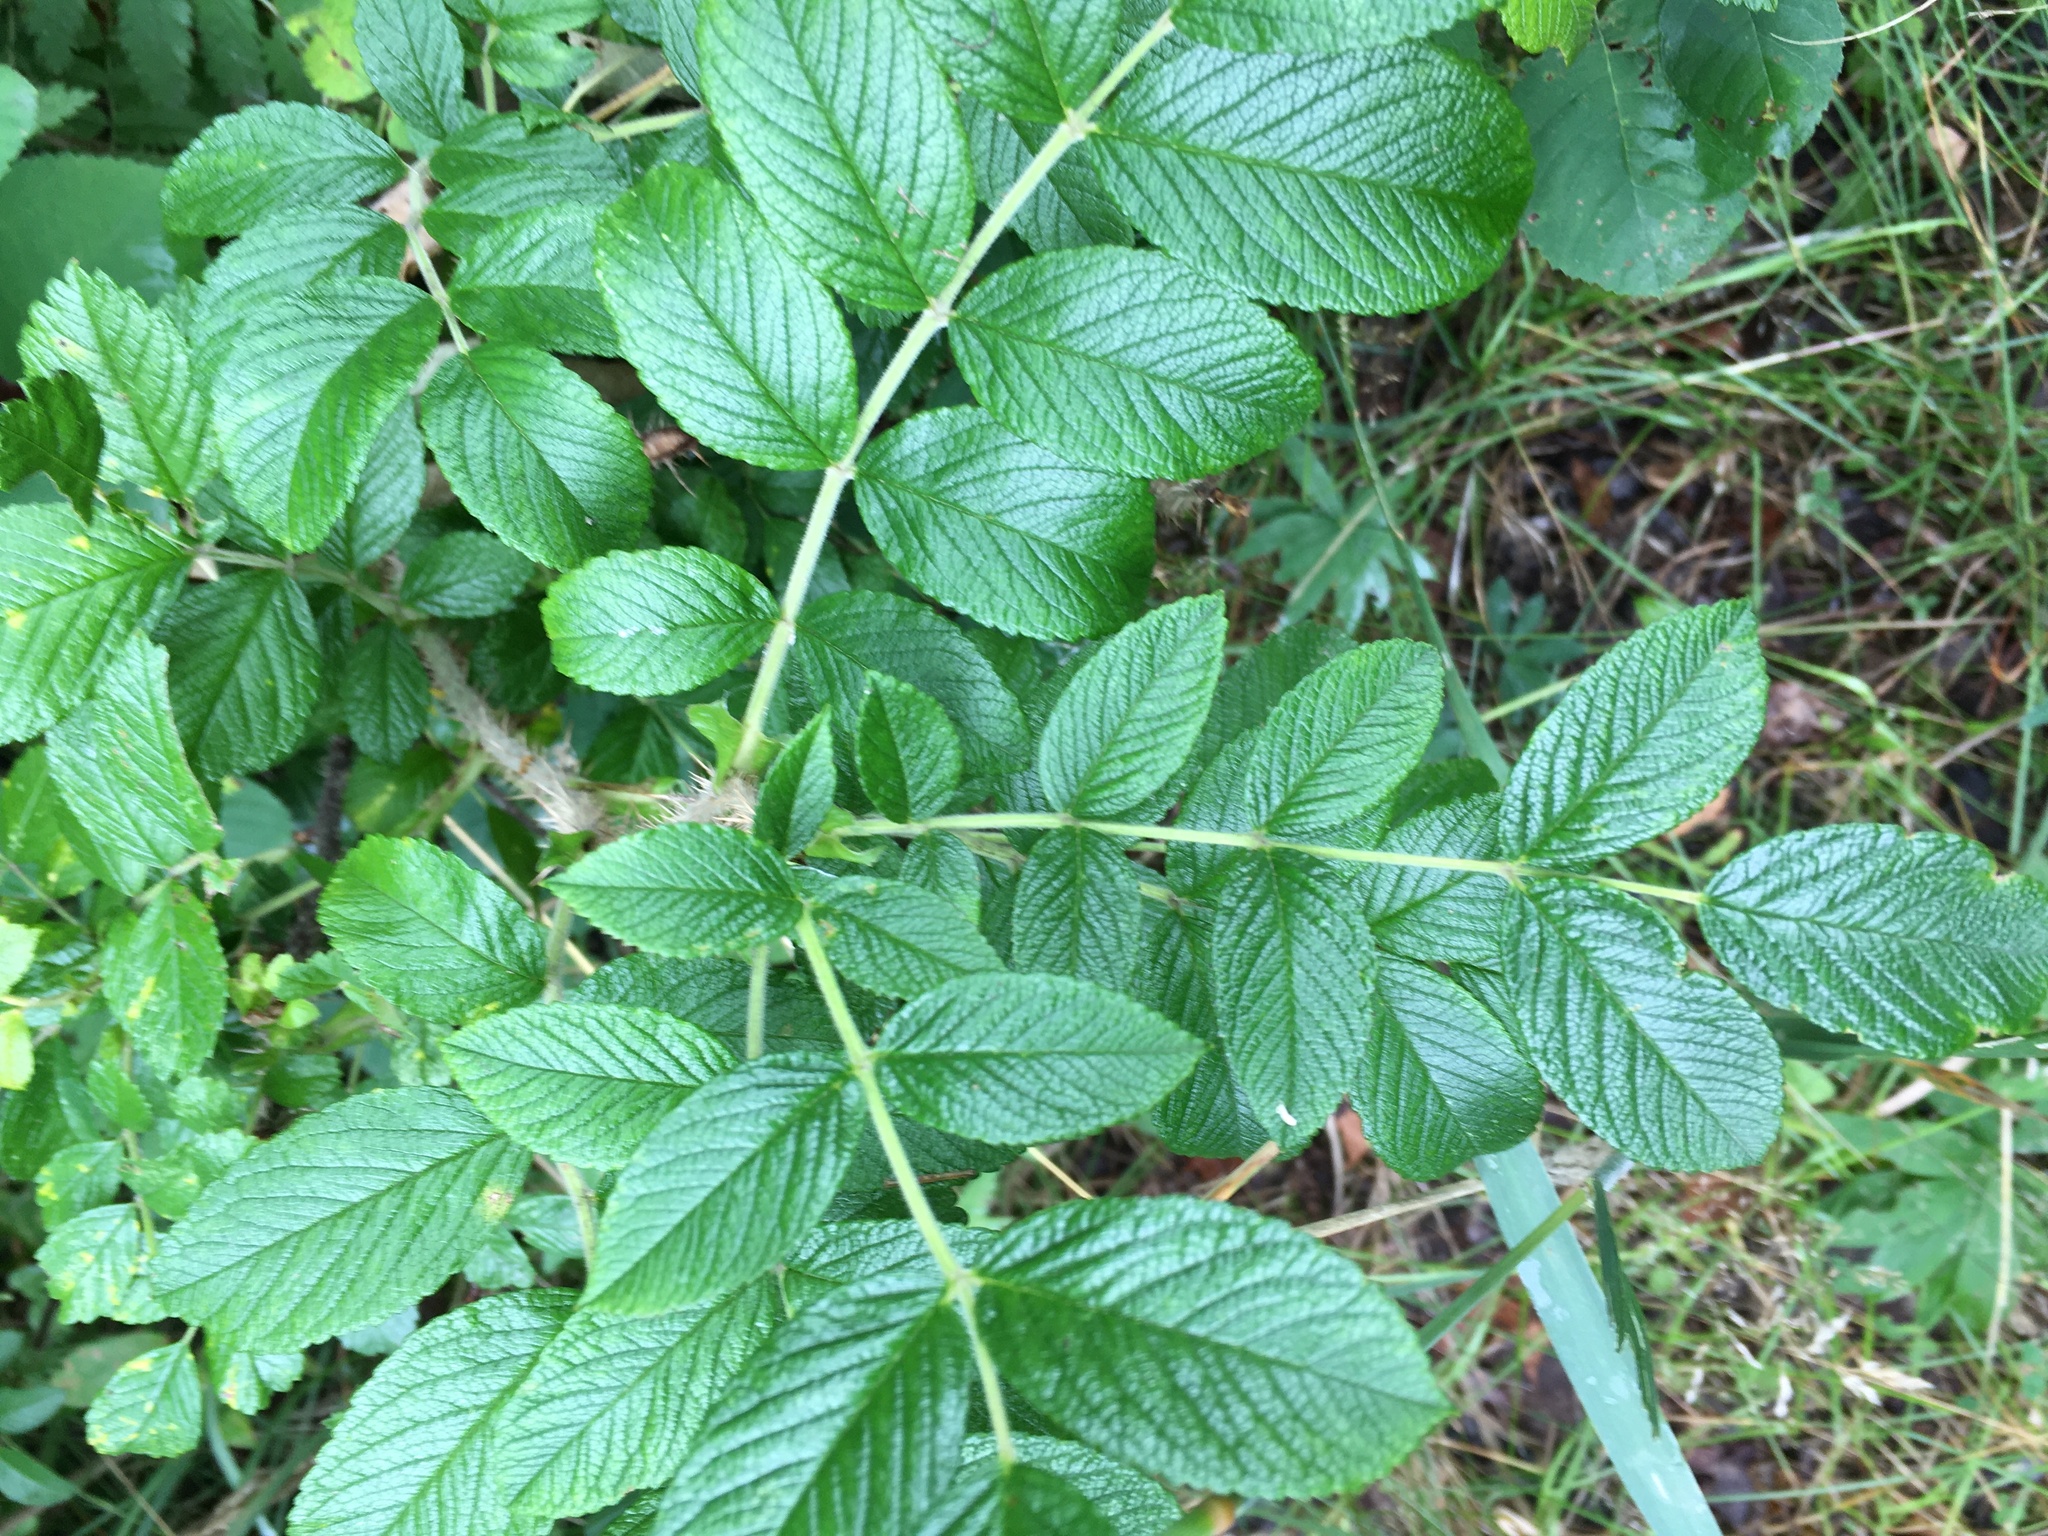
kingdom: Plantae
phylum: Tracheophyta
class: Magnoliopsida
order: Rosales
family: Rosaceae
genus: Rosa
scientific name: Rosa rugosa
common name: Japanese rose
